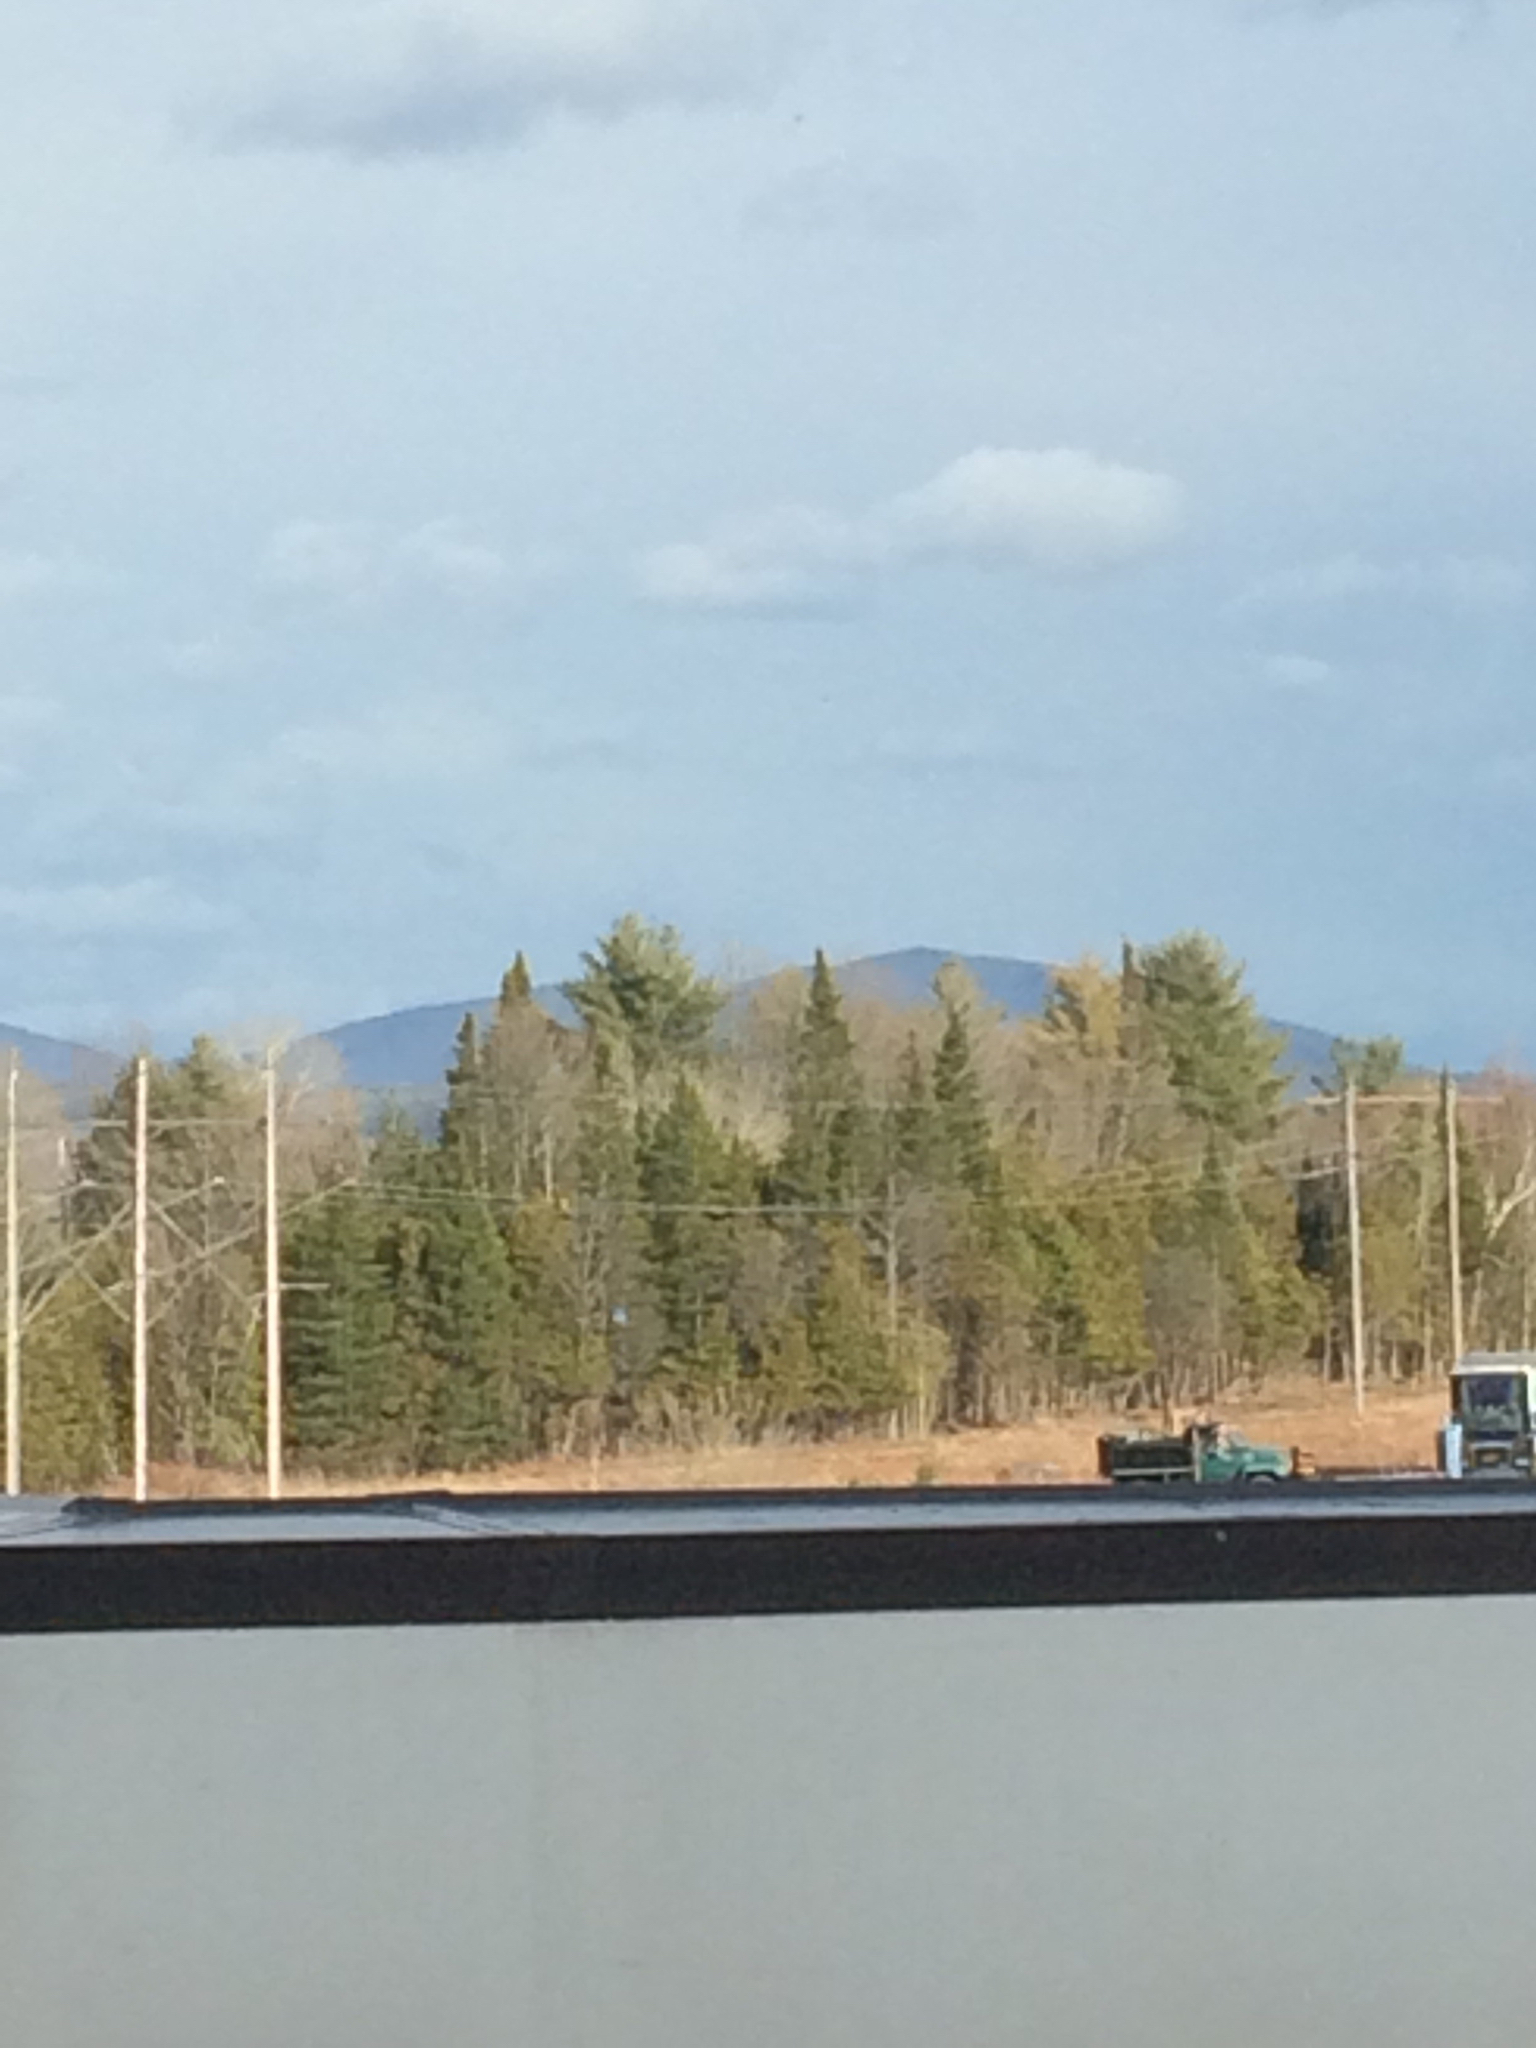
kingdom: Plantae
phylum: Tracheophyta
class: Pinopsida
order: Pinales
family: Pinaceae
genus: Pinus
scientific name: Pinus strobus
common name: Weymouth pine
